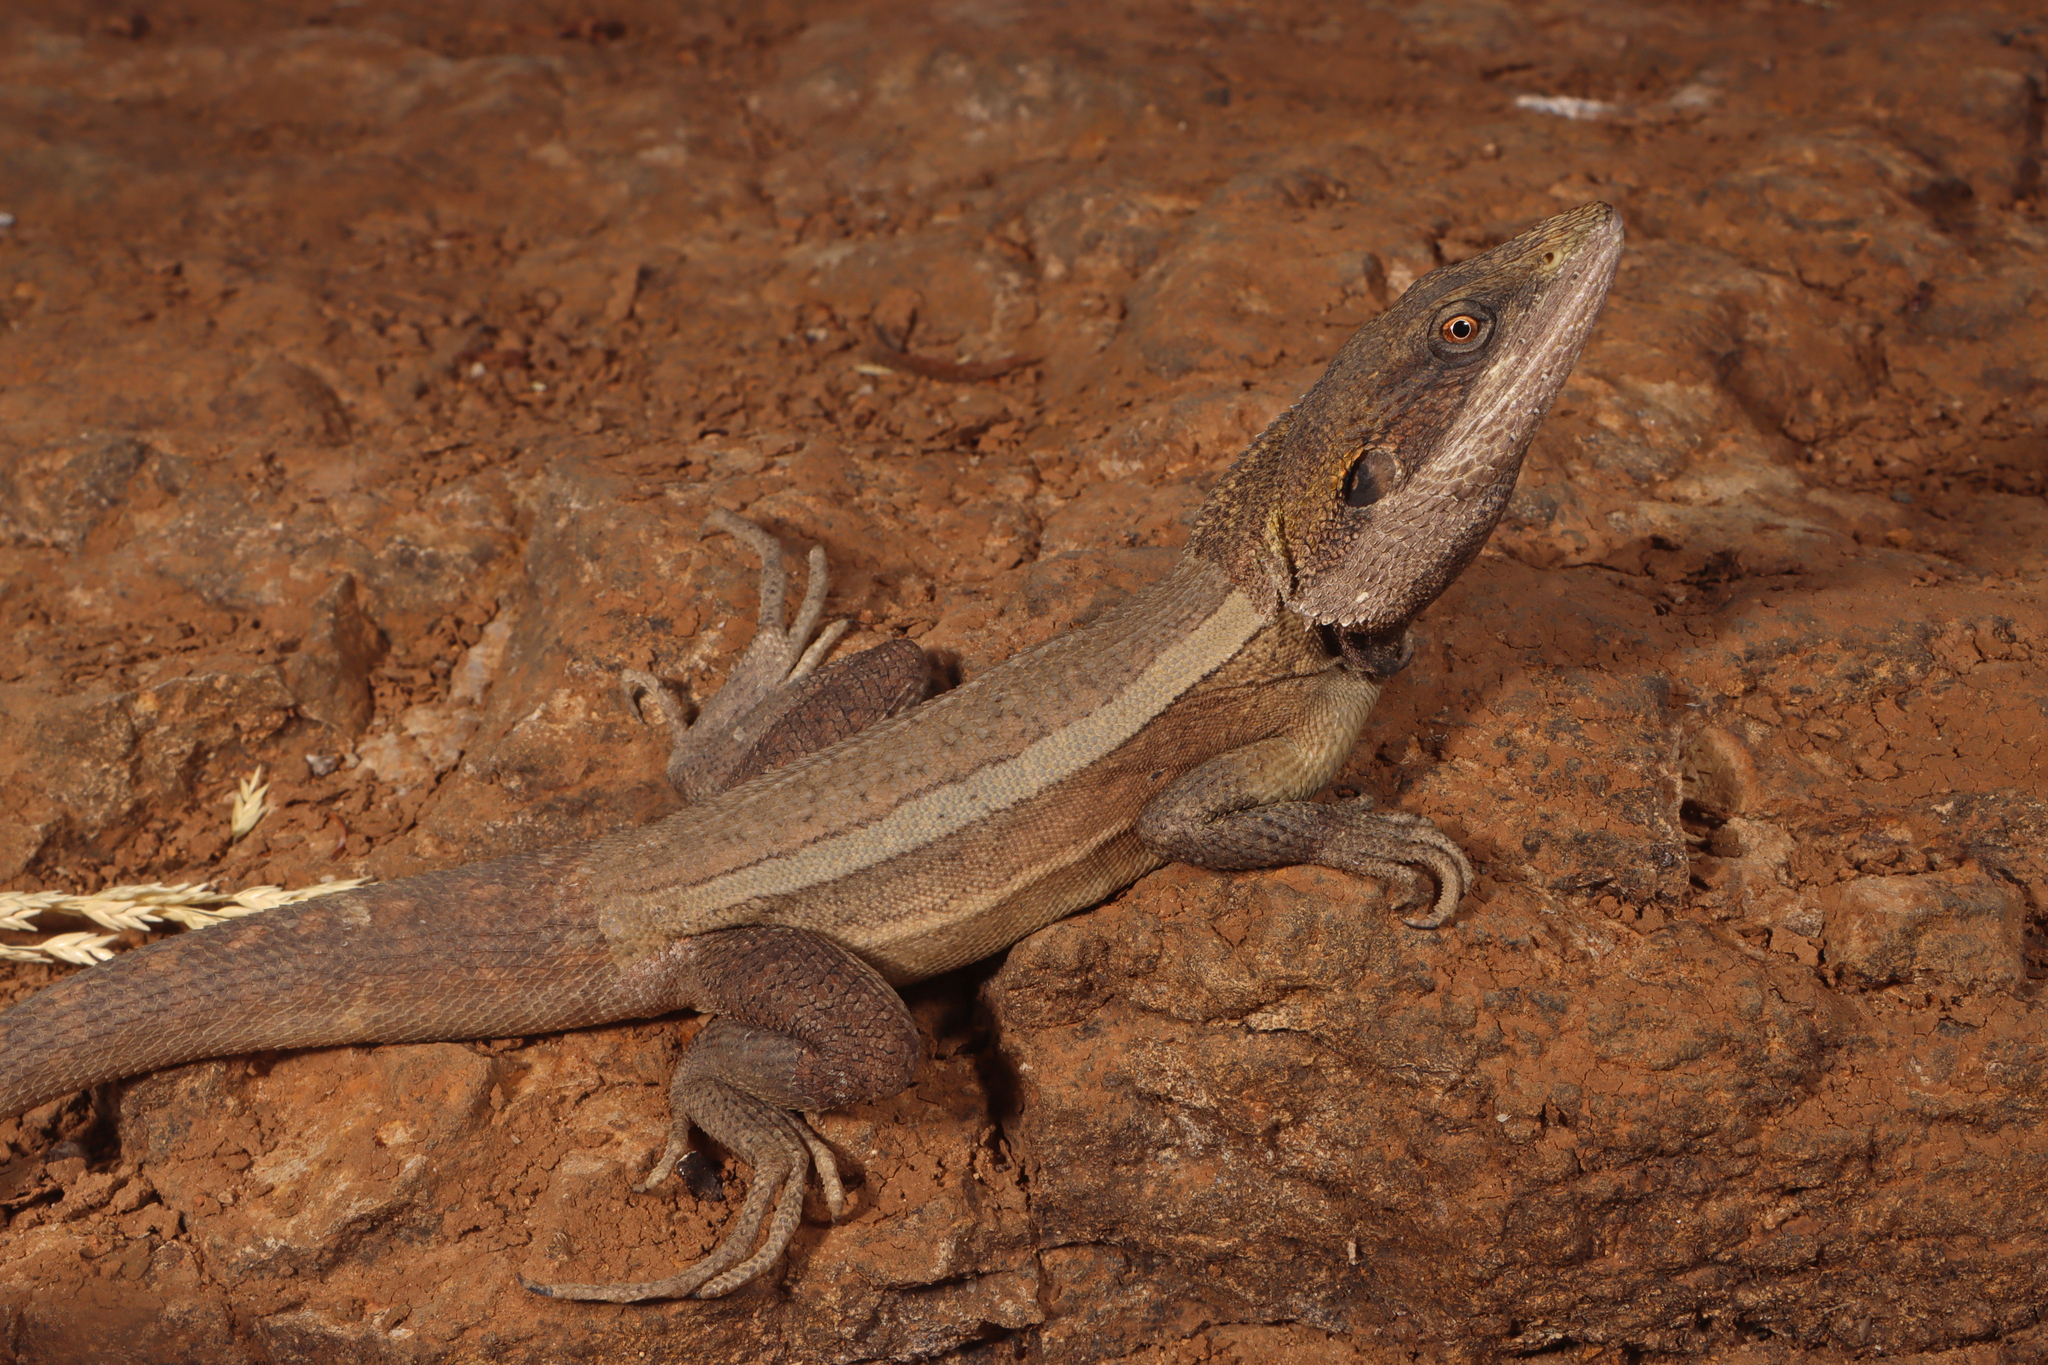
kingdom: Animalia
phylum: Chordata
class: Squamata
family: Agamidae
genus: Lophognathus
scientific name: Lophognathus horneri
